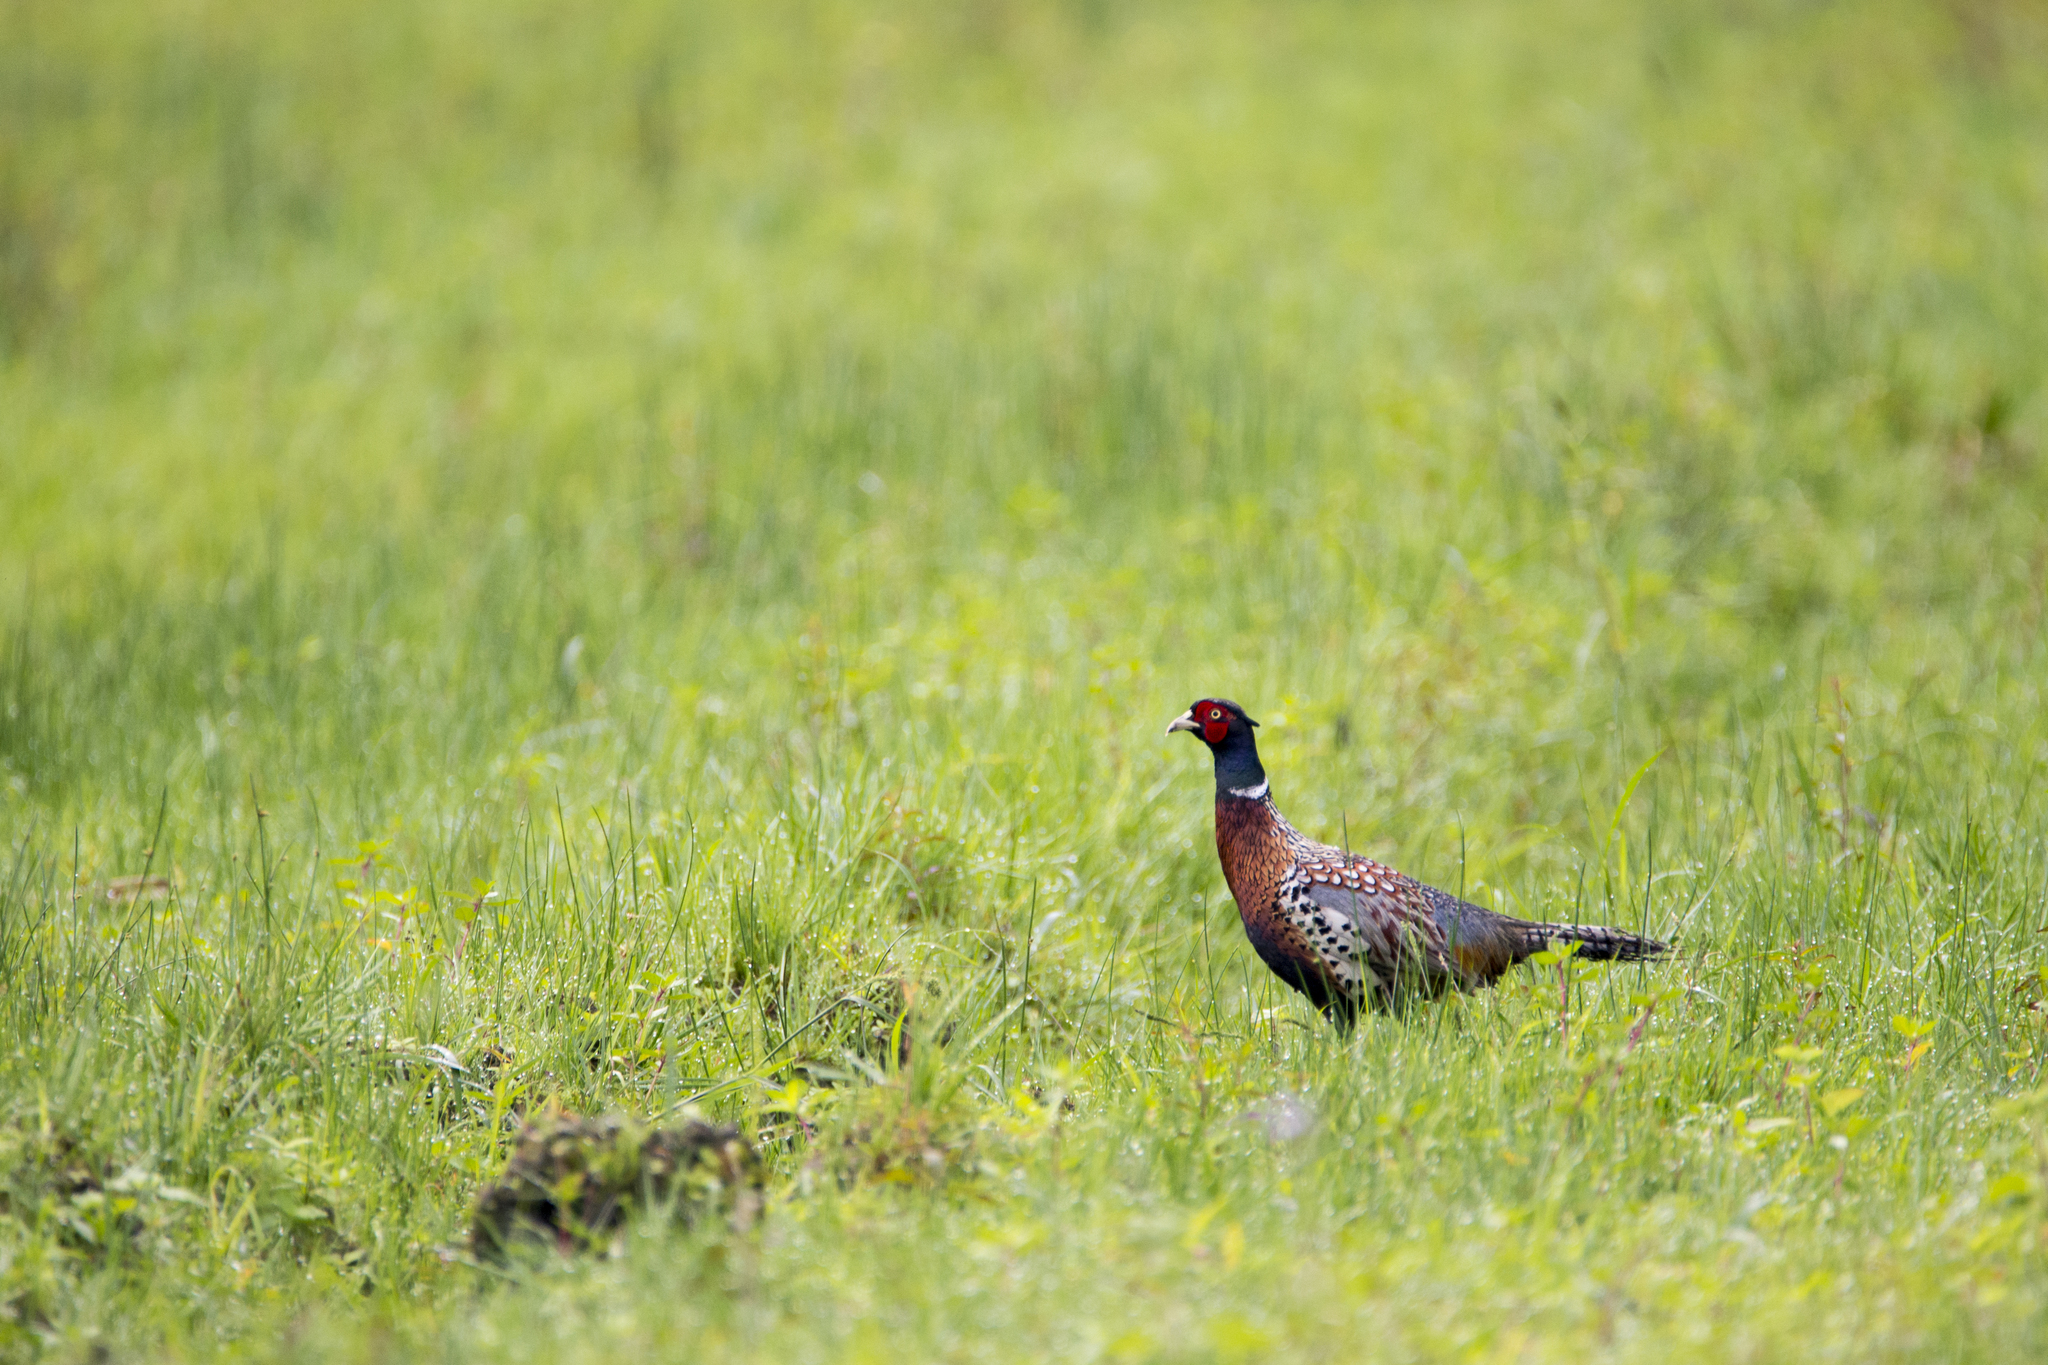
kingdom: Animalia
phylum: Chordata
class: Aves
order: Galliformes
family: Phasianidae
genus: Phasianus
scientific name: Phasianus colchicus
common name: Common pheasant
